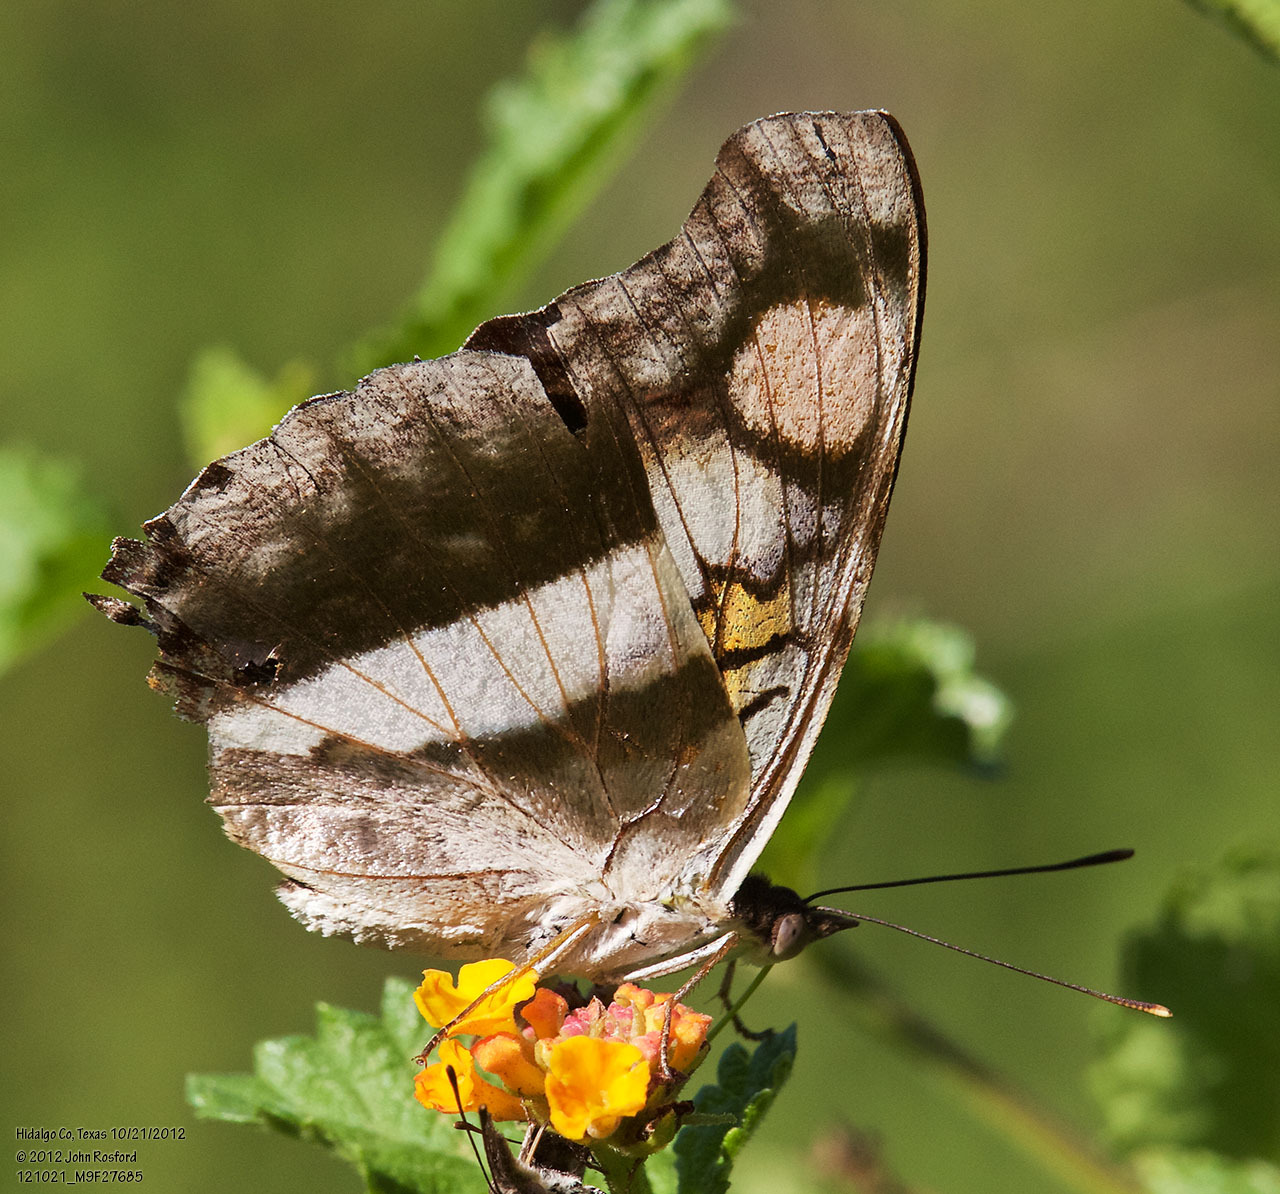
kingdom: Animalia
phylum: Arthropoda
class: Insecta
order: Lepidoptera
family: Nymphalidae
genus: Doxocopa
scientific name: Doxocopa laure
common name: Silver emperor
